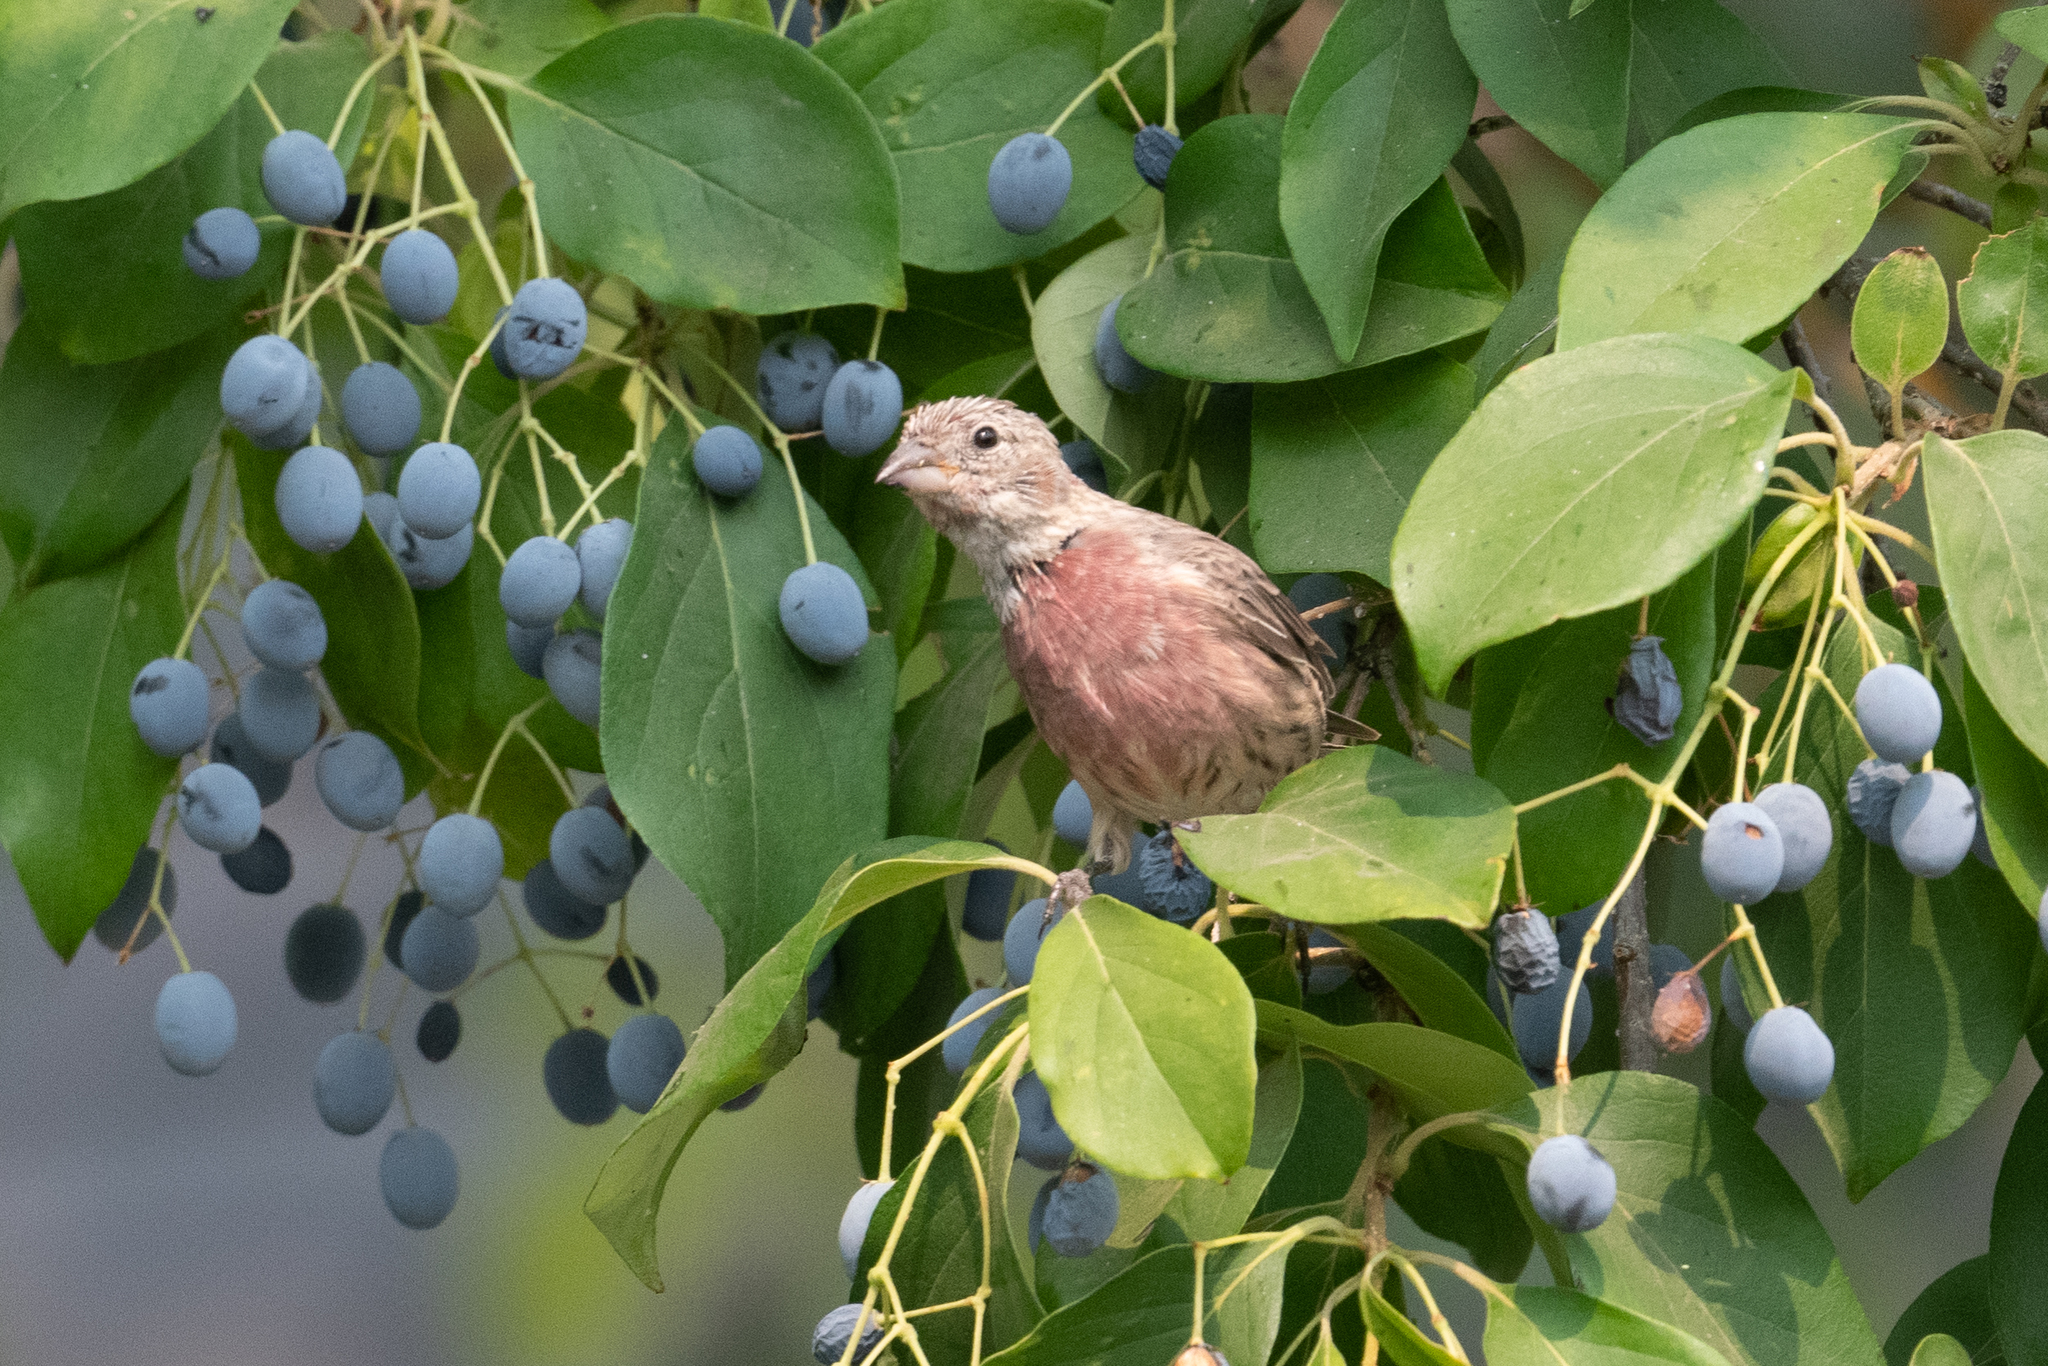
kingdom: Animalia
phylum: Chordata
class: Aves
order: Passeriformes
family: Fringillidae
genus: Haemorhous
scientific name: Haemorhous mexicanus
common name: House finch
